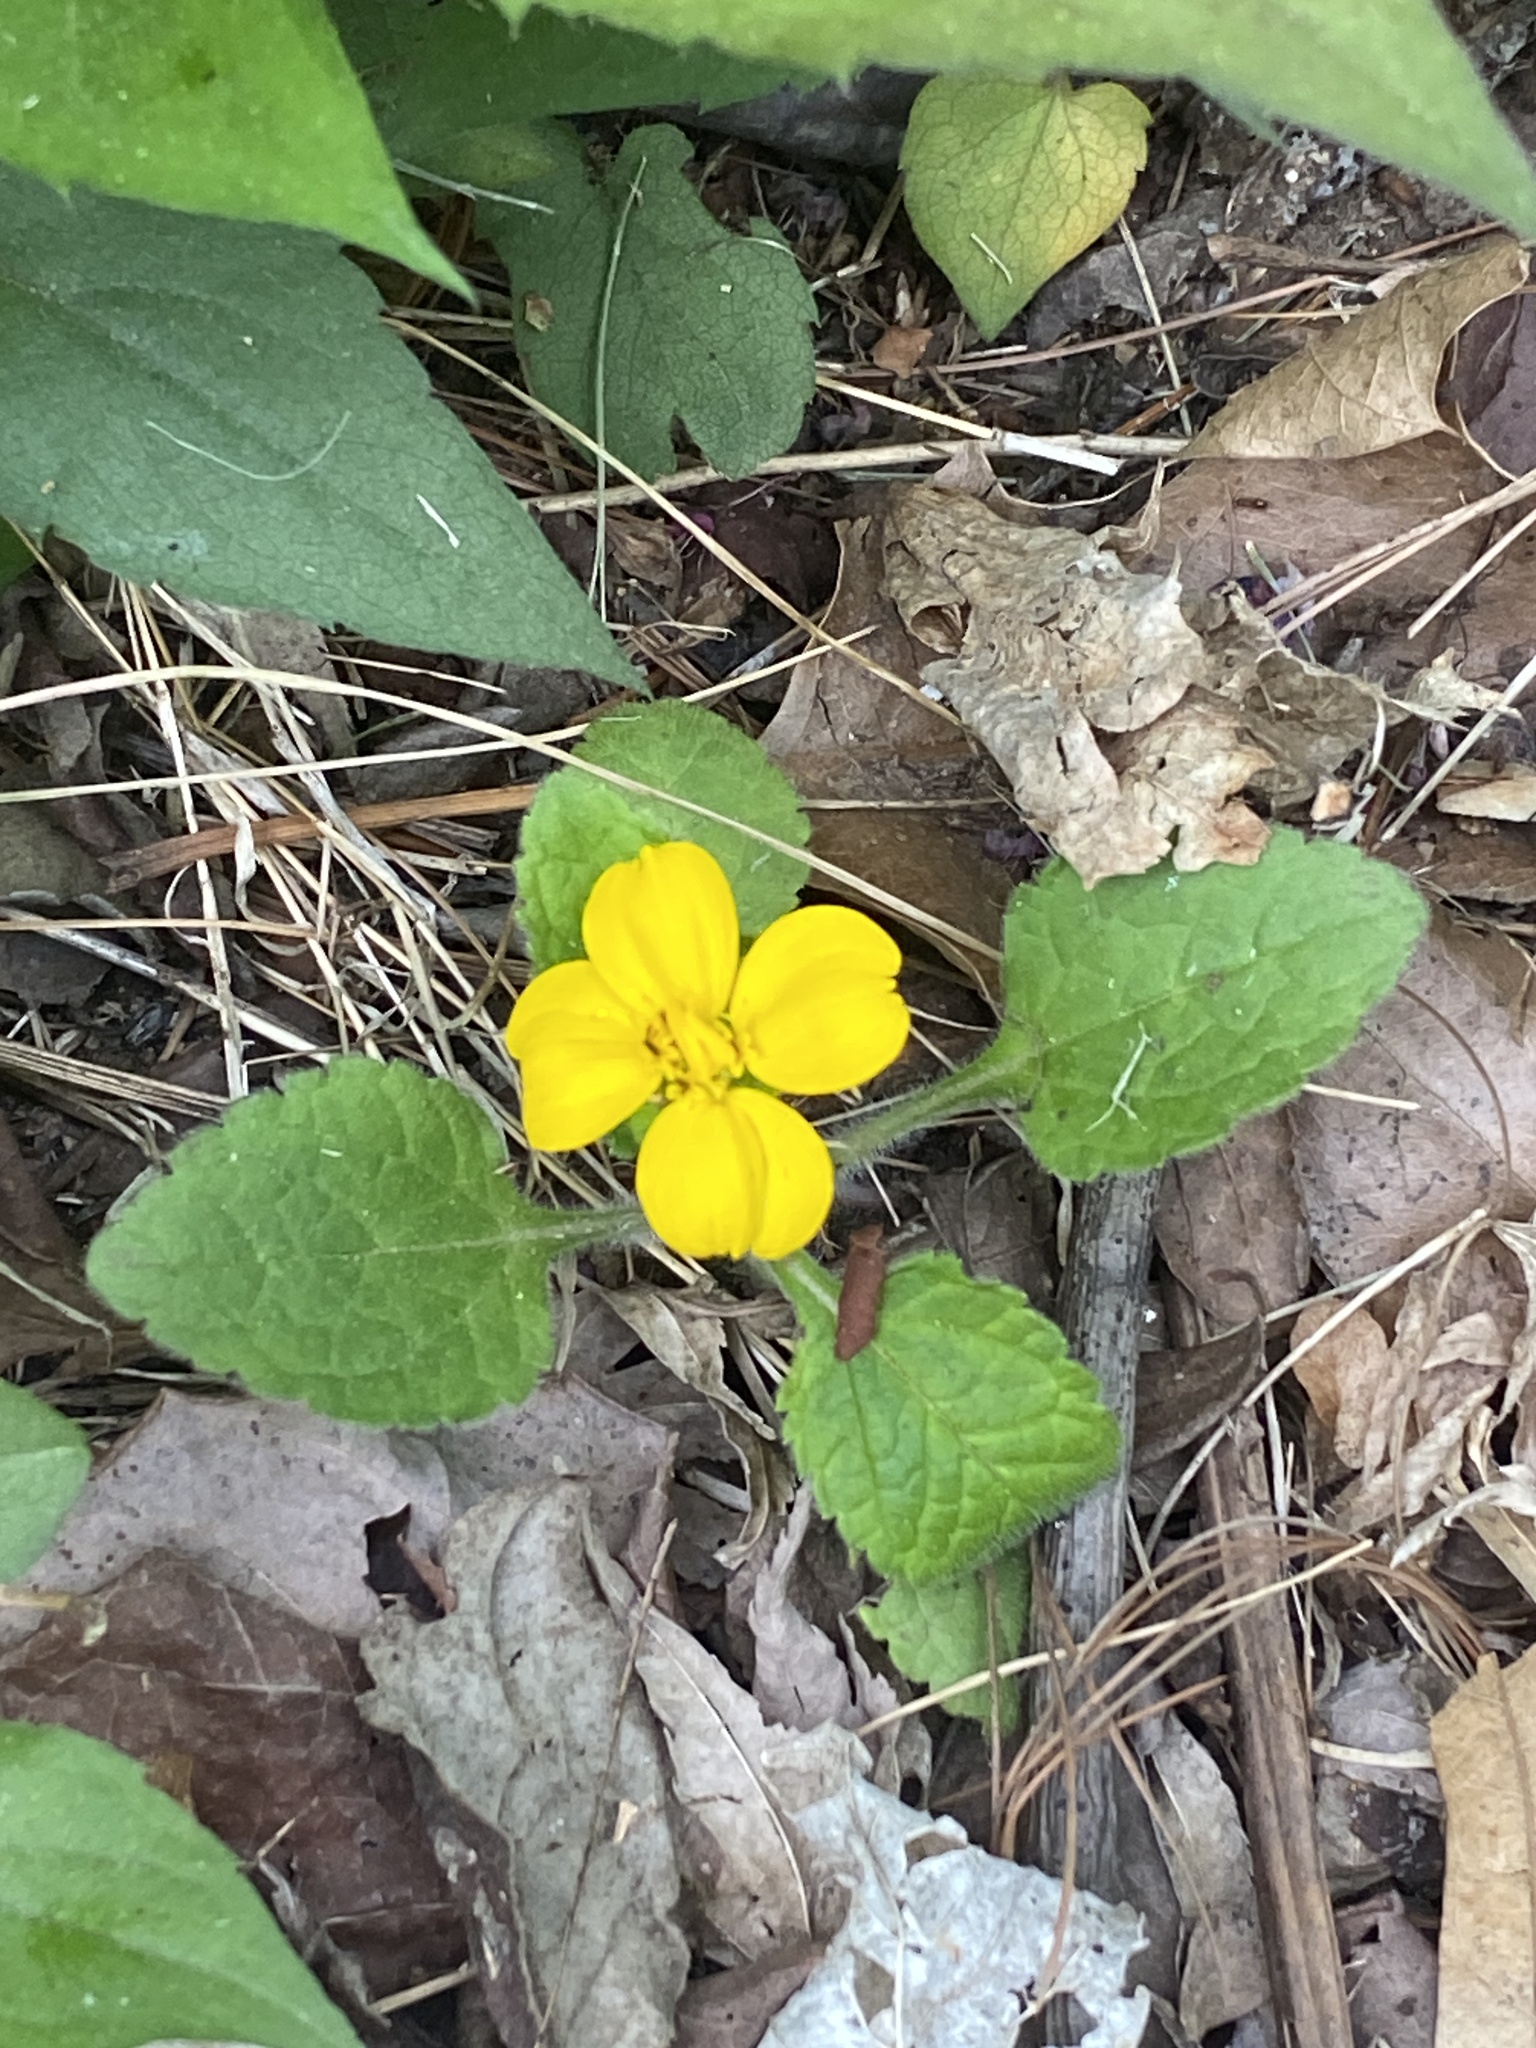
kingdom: Plantae
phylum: Tracheophyta
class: Magnoliopsida
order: Asterales
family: Asteraceae
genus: Chrysogonum
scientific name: Chrysogonum virginianum
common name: Golden-knee
